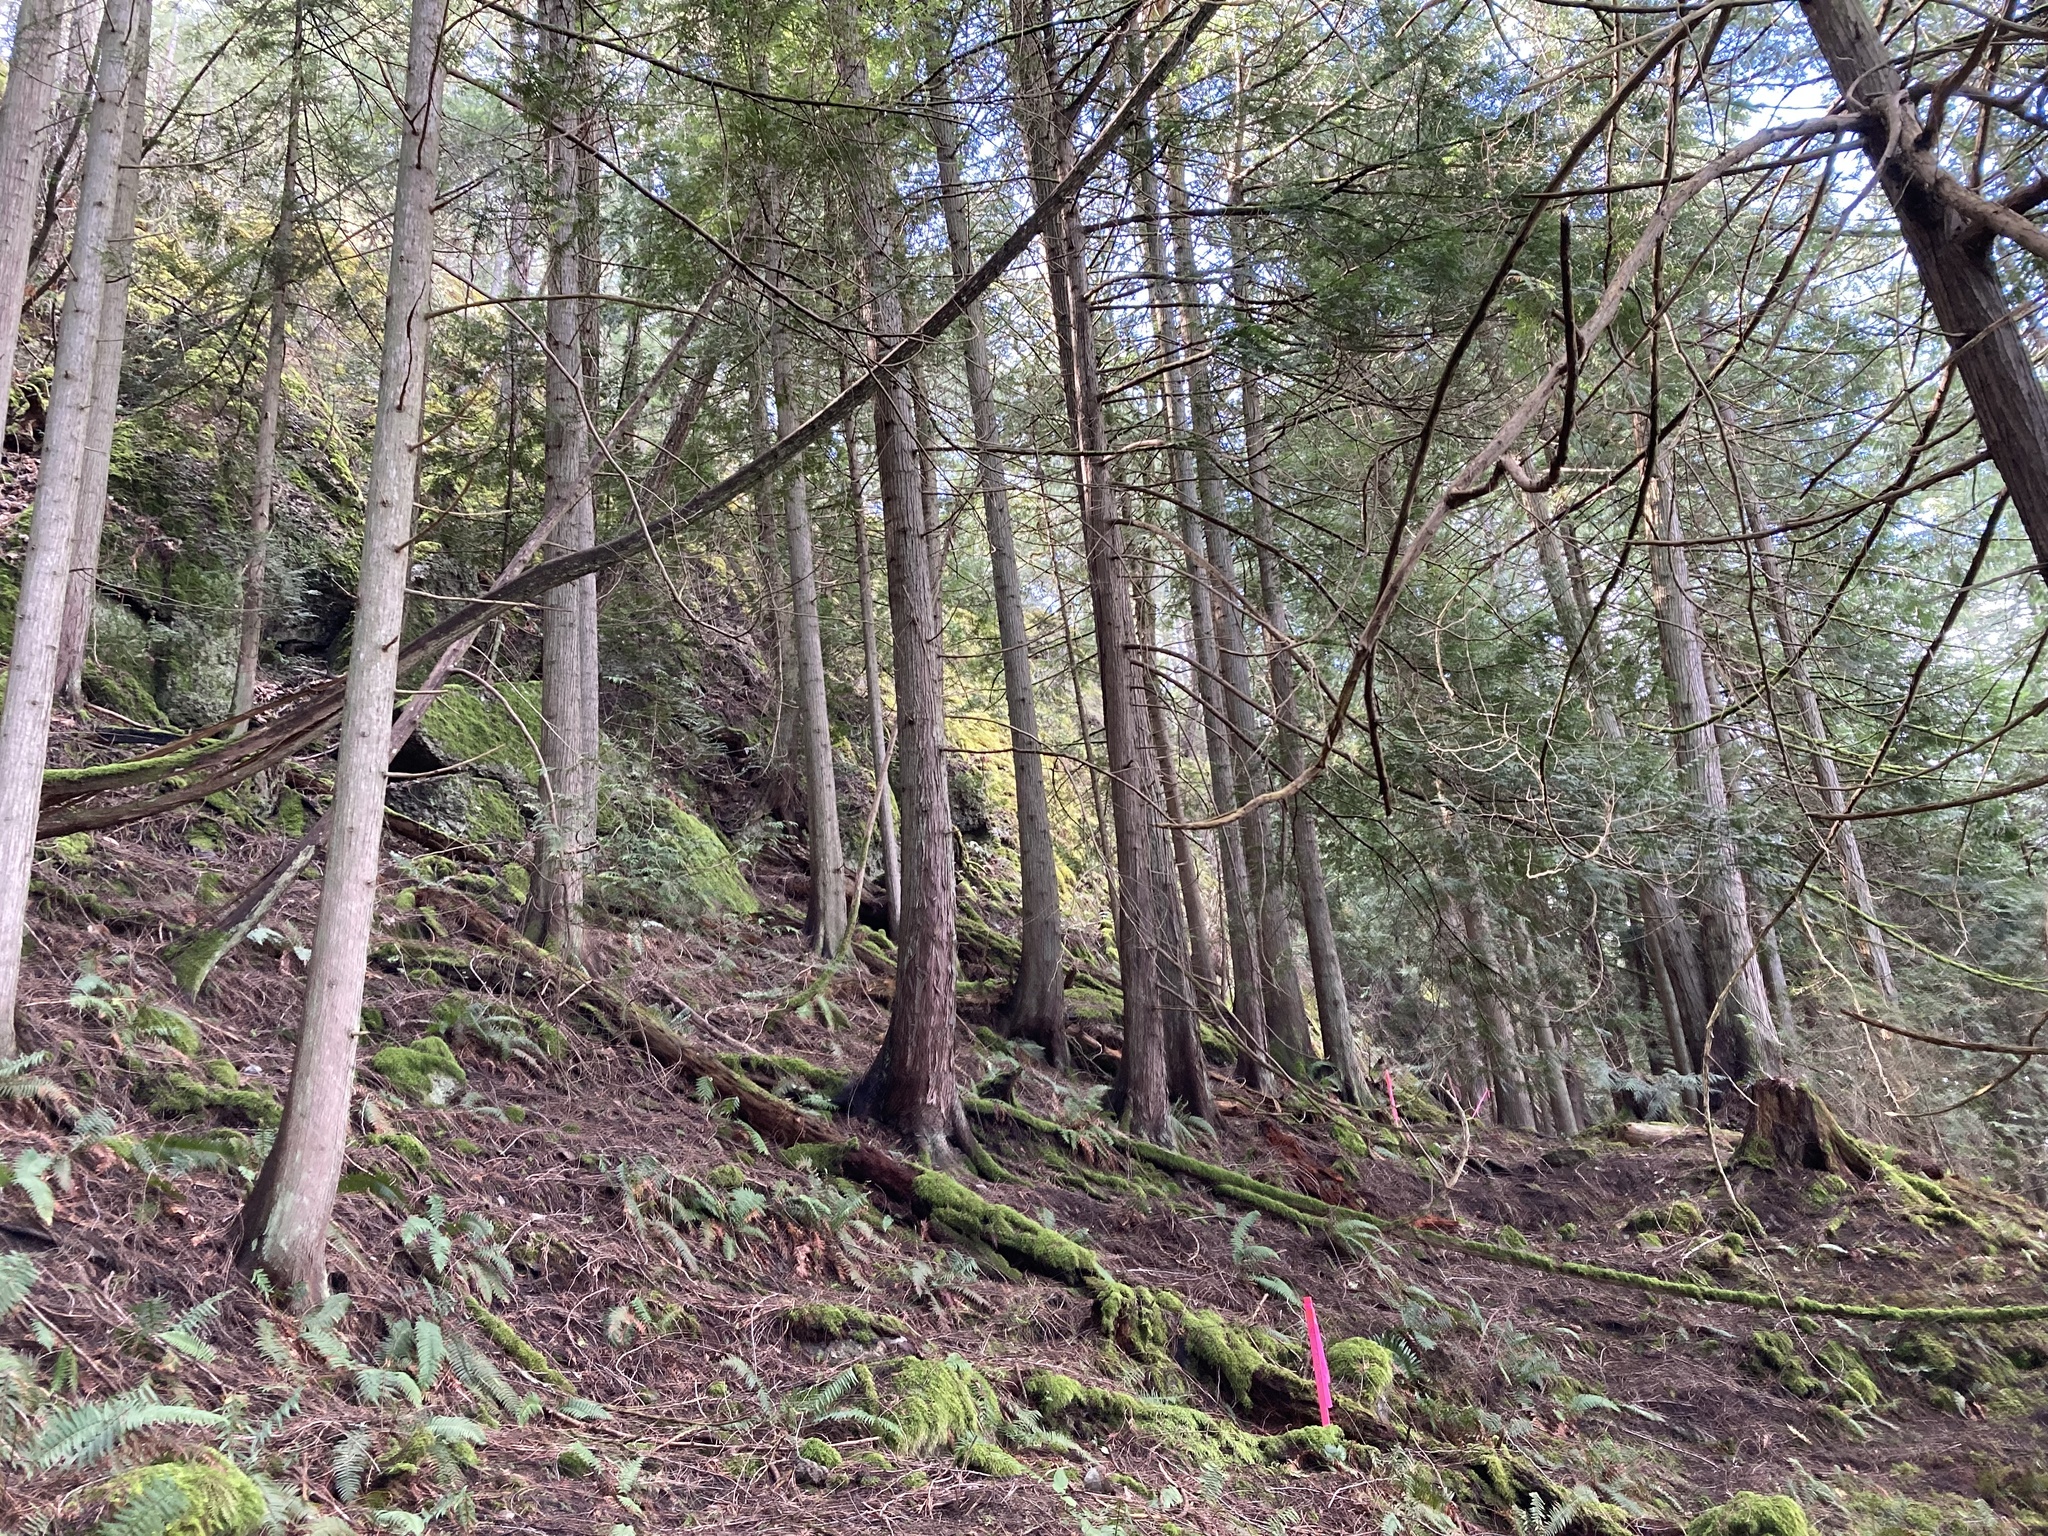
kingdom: Plantae
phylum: Tracheophyta
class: Pinopsida
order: Pinales
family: Cupressaceae
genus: Thuja
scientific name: Thuja plicata
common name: Western red-cedar
